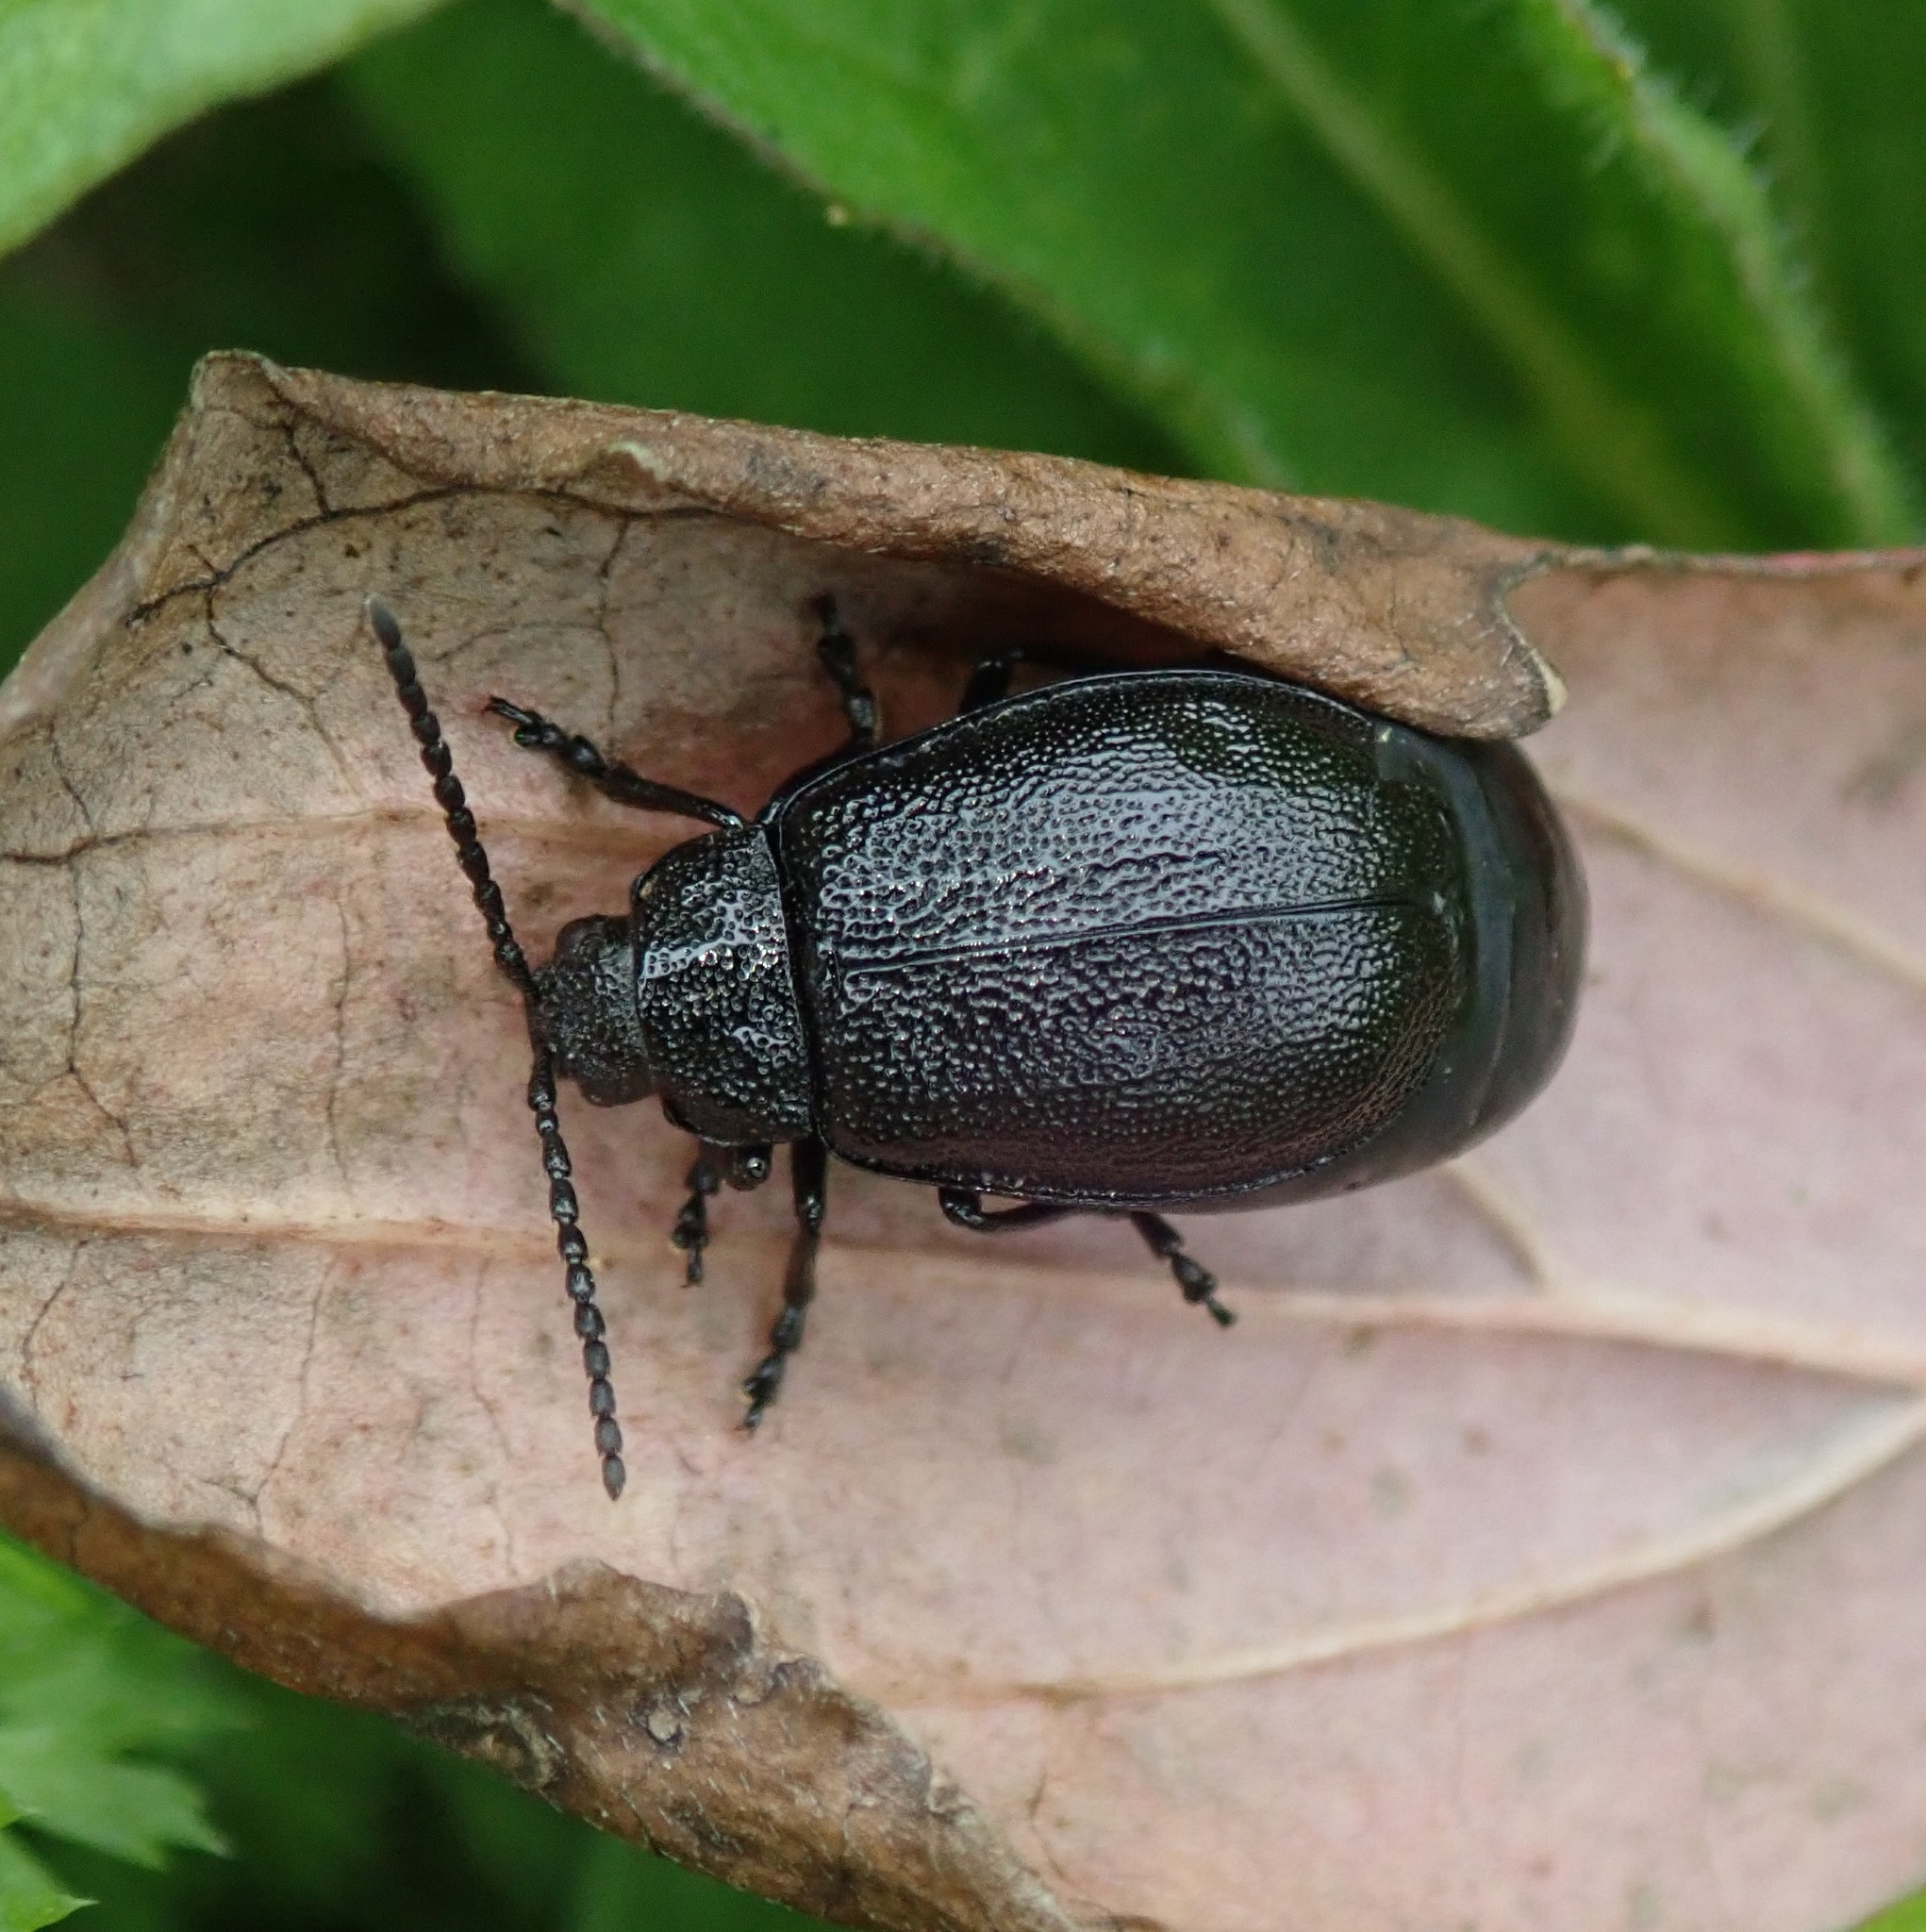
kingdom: Animalia
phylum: Arthropoda
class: Insecta
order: Coleoptera
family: Chrysomelidae
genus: Galeruca
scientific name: Galeruca tanaceti
